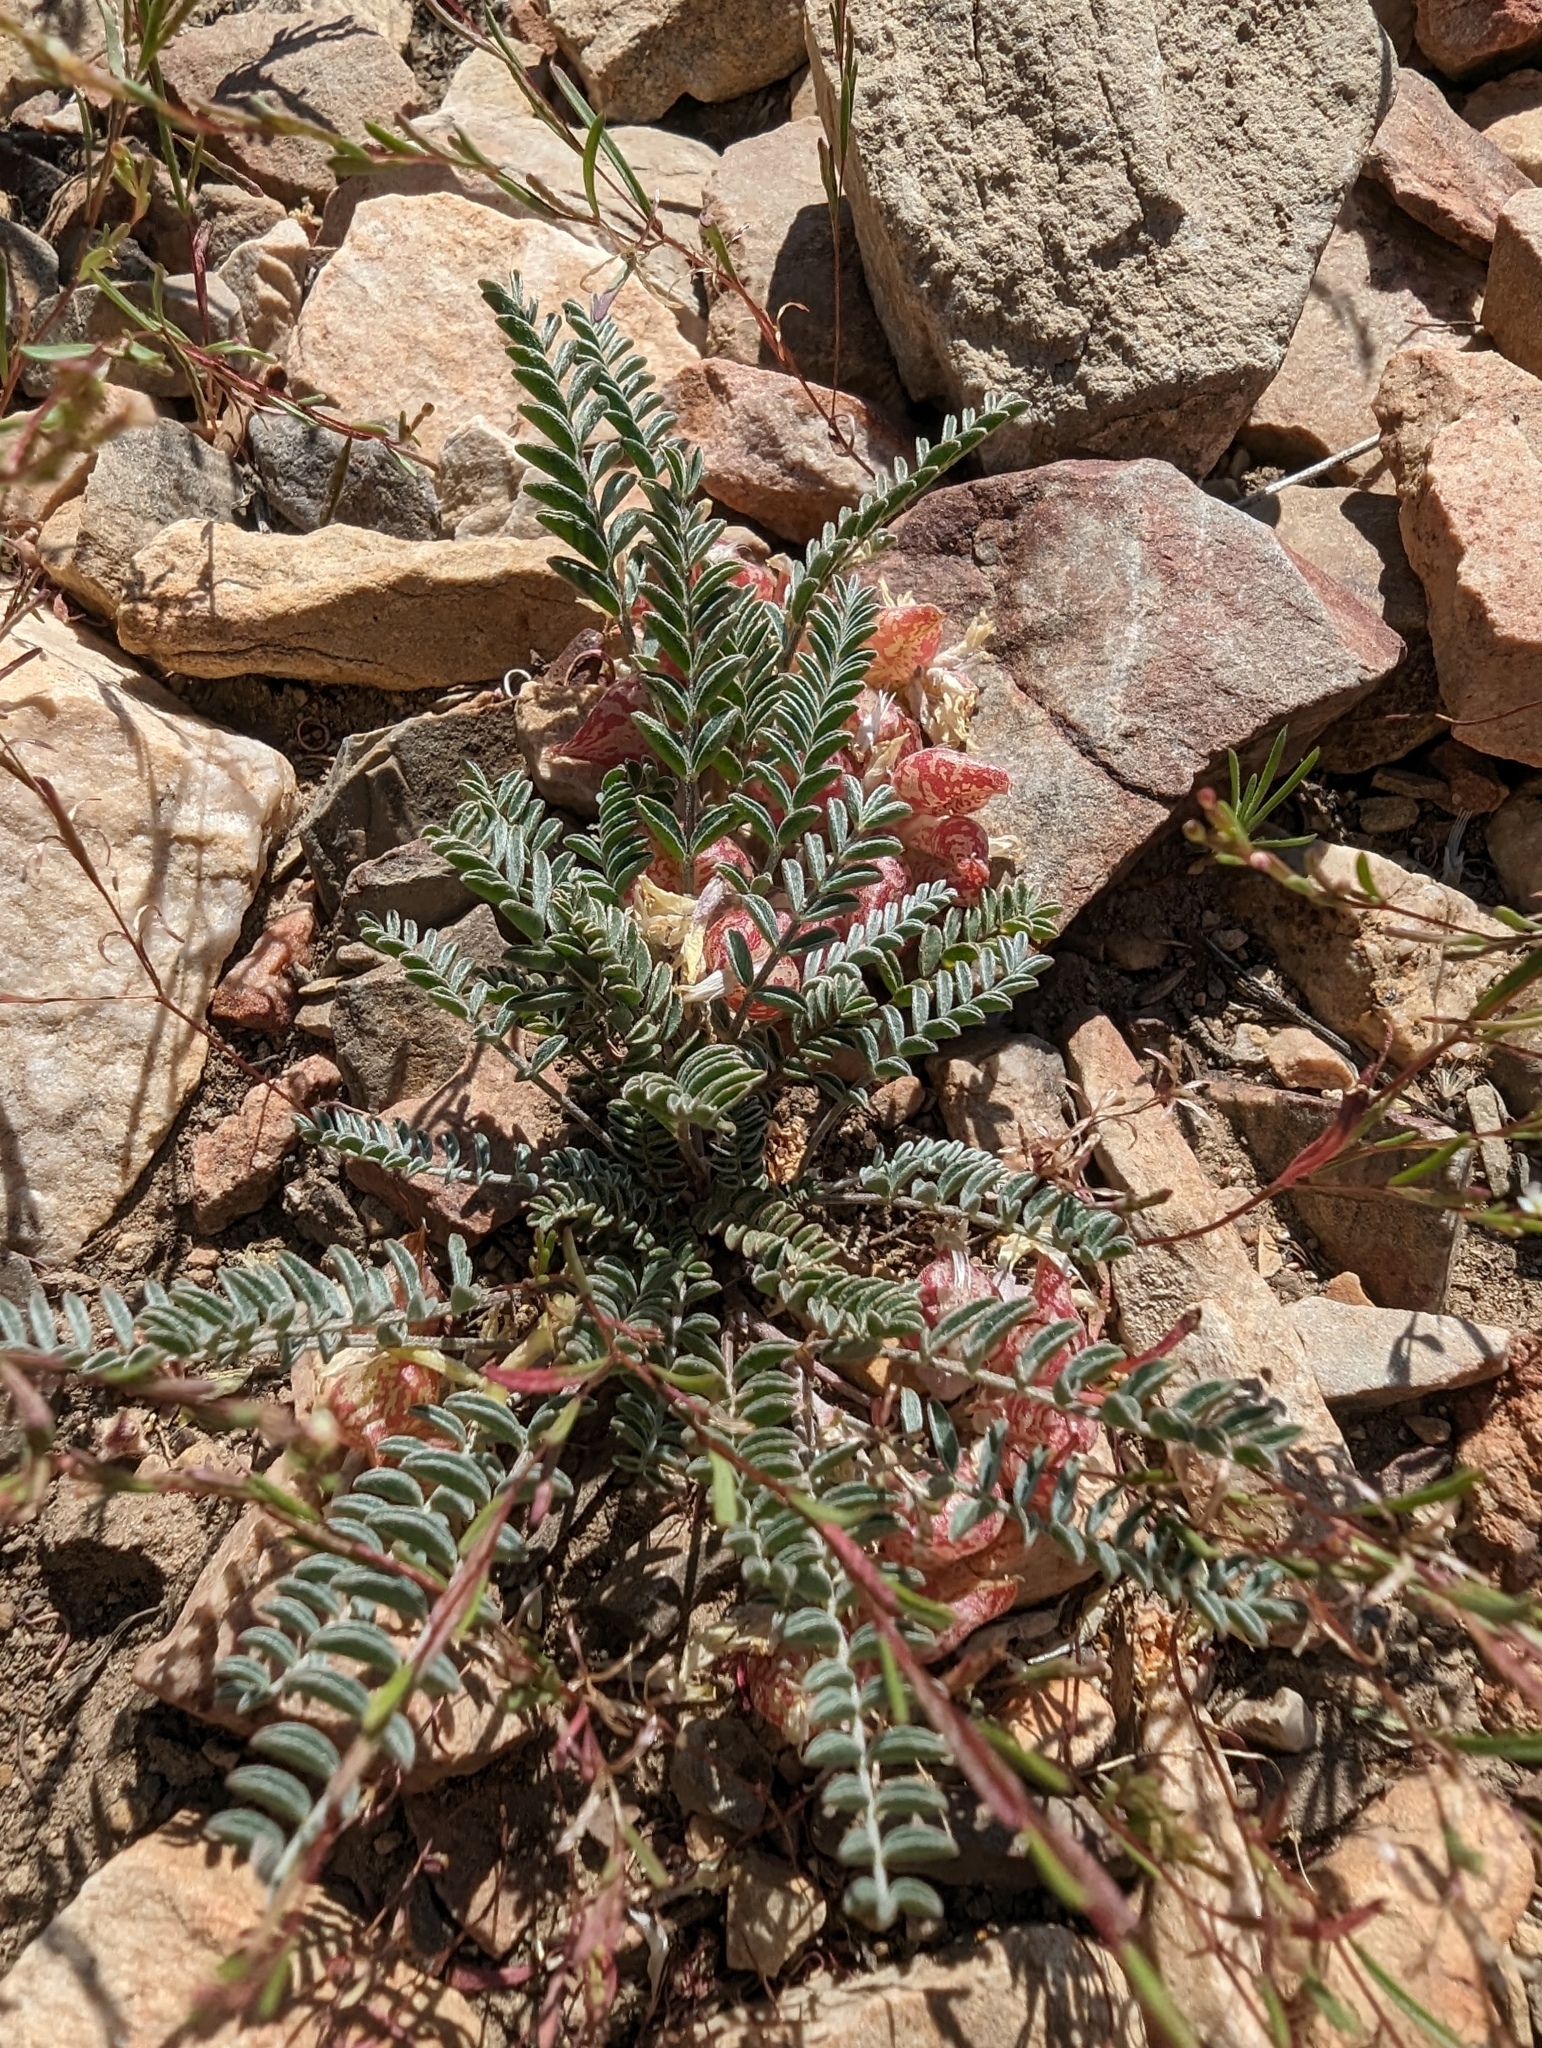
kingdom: Plantae
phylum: Tracheophyta
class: Magnoliopsida
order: Fabales
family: Fabaceae
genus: Astragalus
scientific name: Astragalus lentiginosus
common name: Freckled milkvetch
